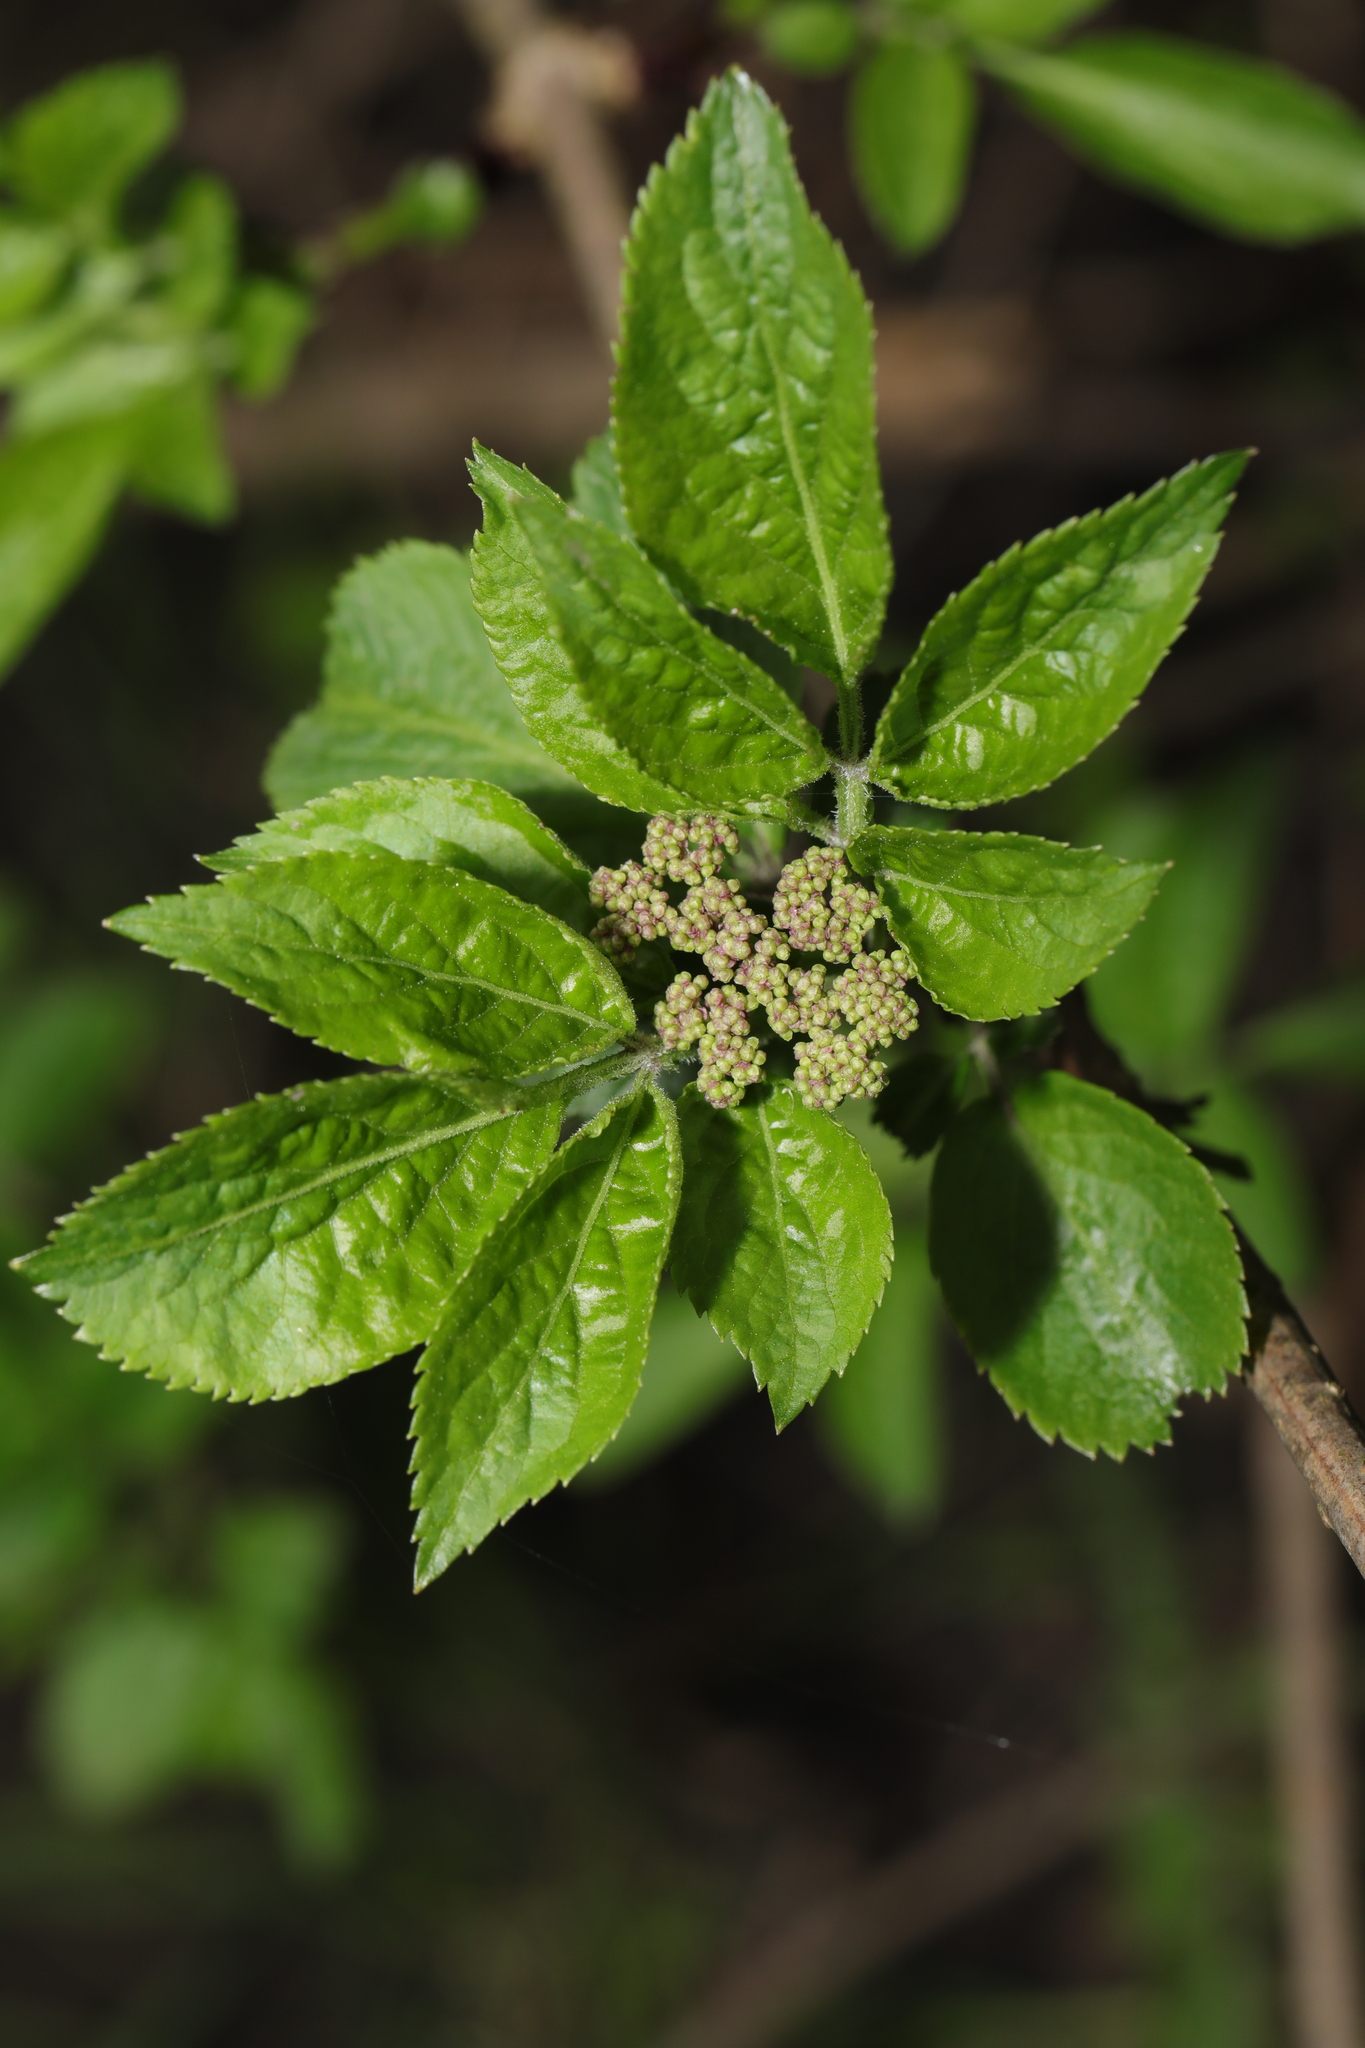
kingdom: Plantae
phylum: Tracheophyta
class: Magnoliopsida
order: Dipsacales
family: Viburnaceae
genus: Sambucus
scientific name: Sambucus nigra
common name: Elder
